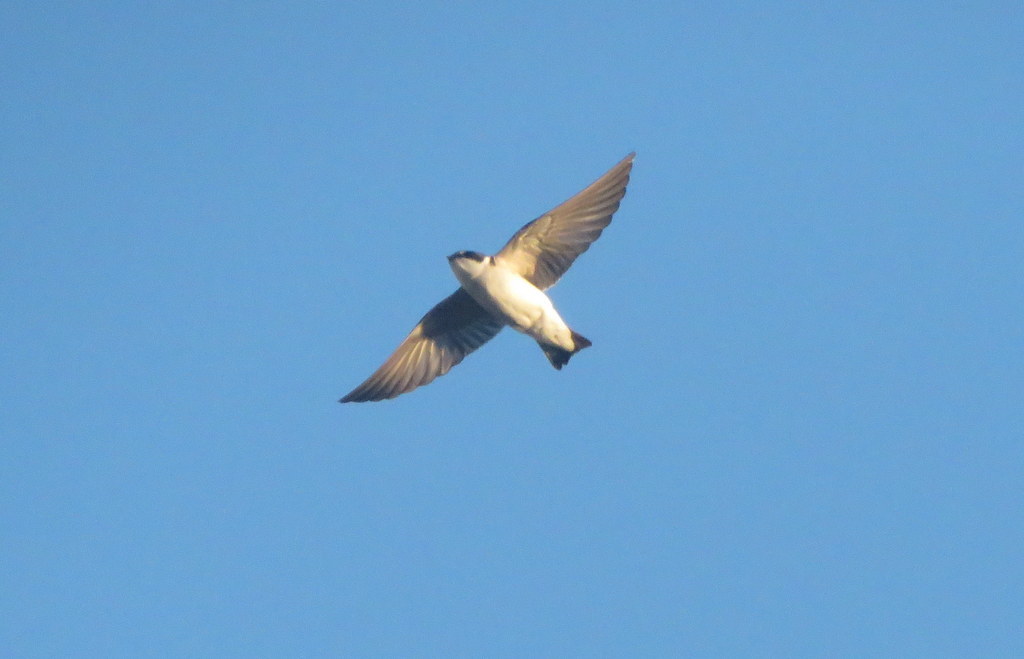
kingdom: Animalia
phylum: Chordata
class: Aves
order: Passeriformes
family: Hirundinidae
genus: Tachycineta
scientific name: Tachycineta leucorrhoa
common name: White-rumped swallow
